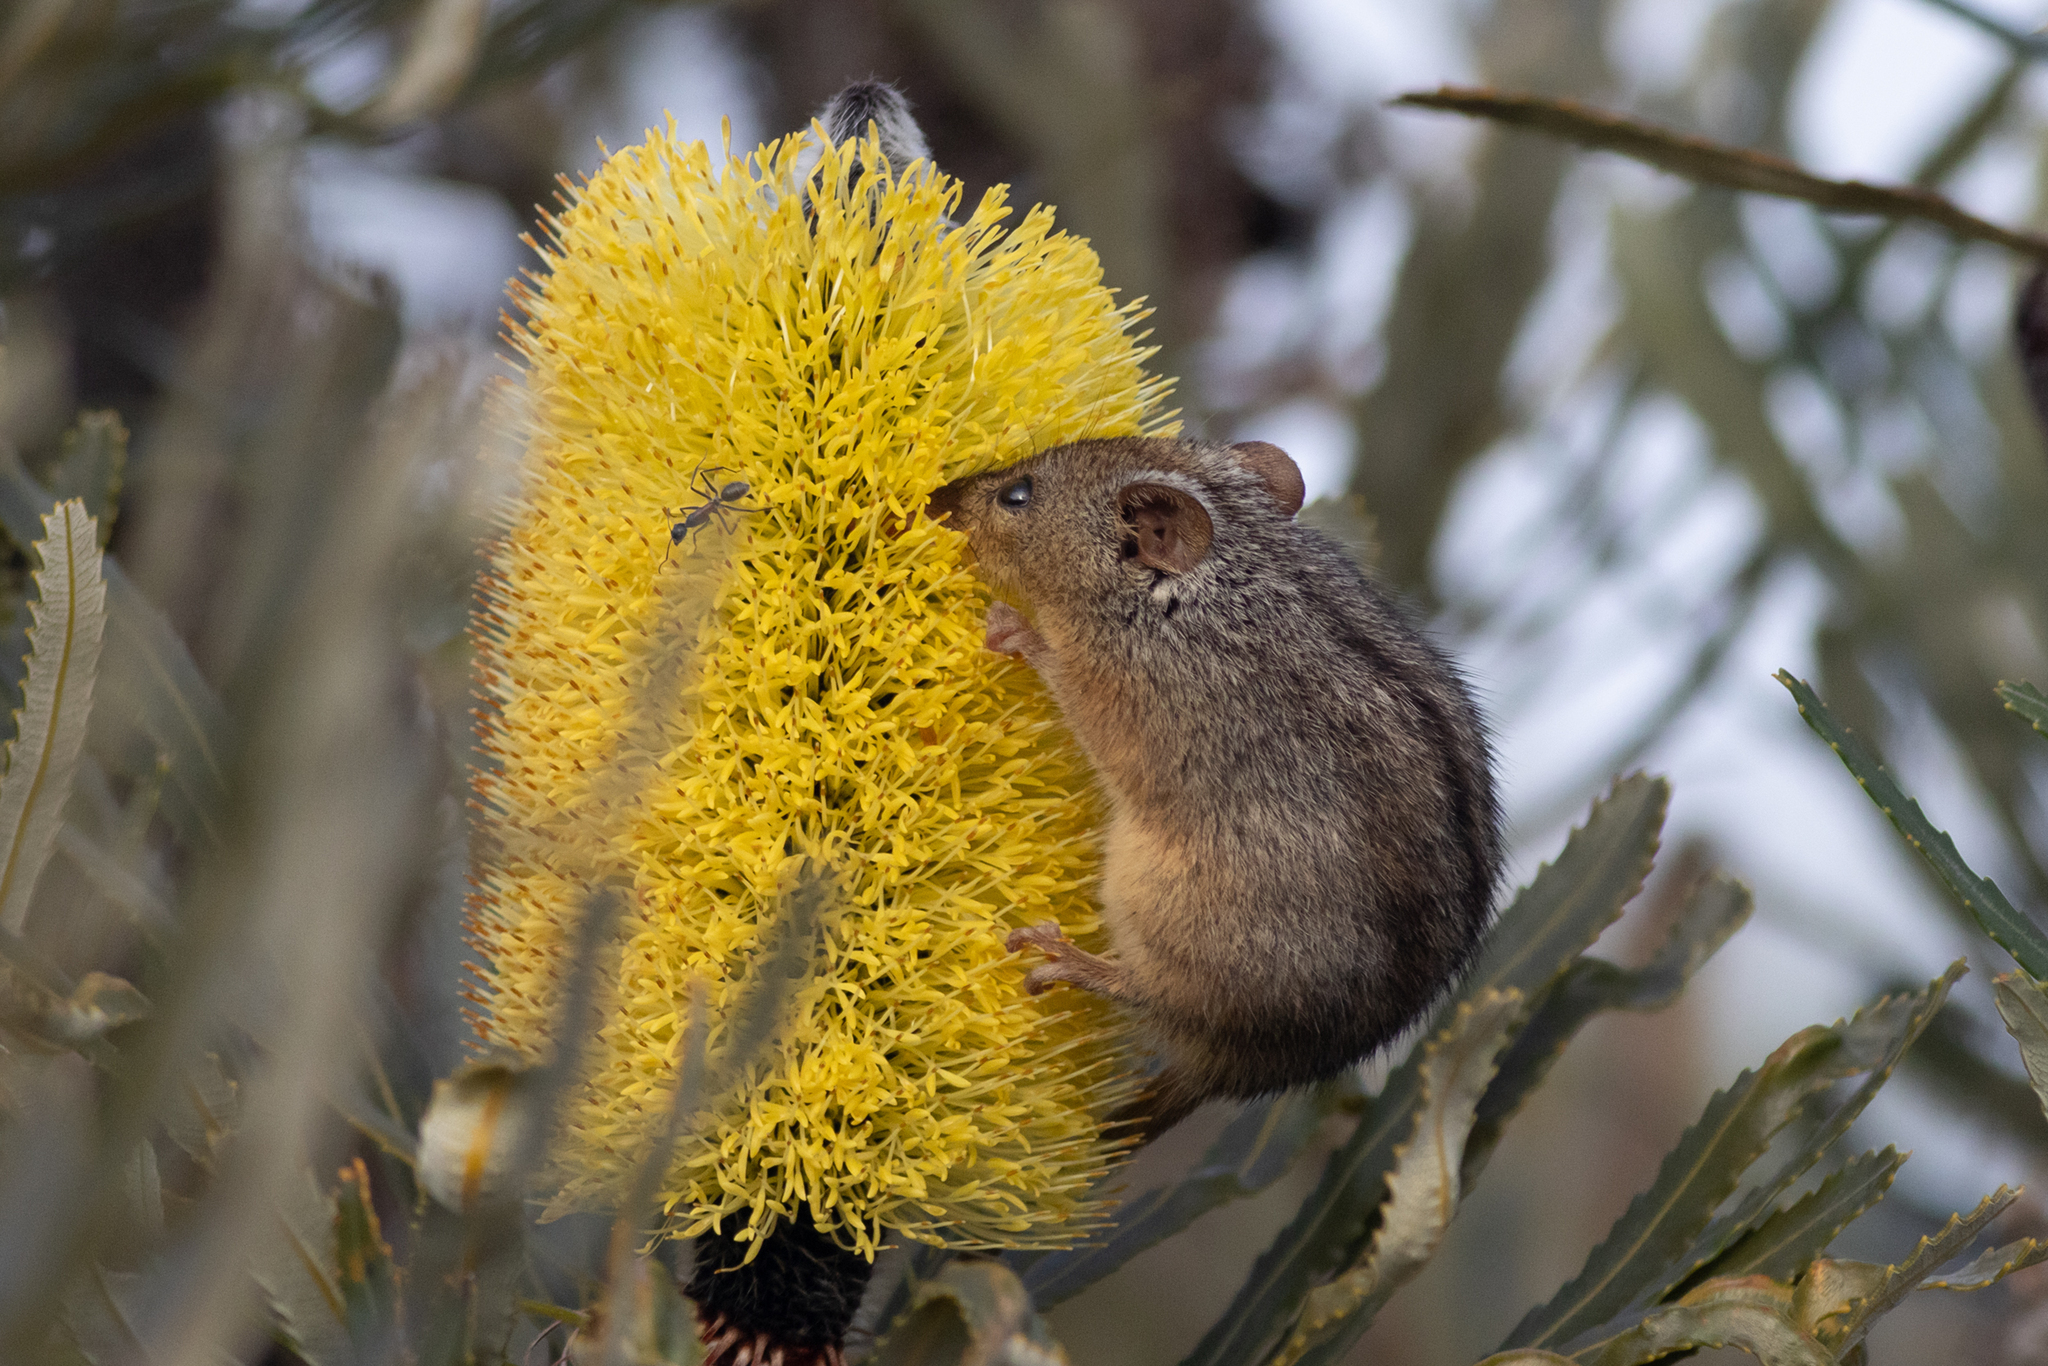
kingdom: Animalia
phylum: Chordata
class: Mammalia
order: Diprotodontia
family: Tarsipedidae
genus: Tarsipes
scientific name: Tarsipes rostratus
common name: Honey possum
